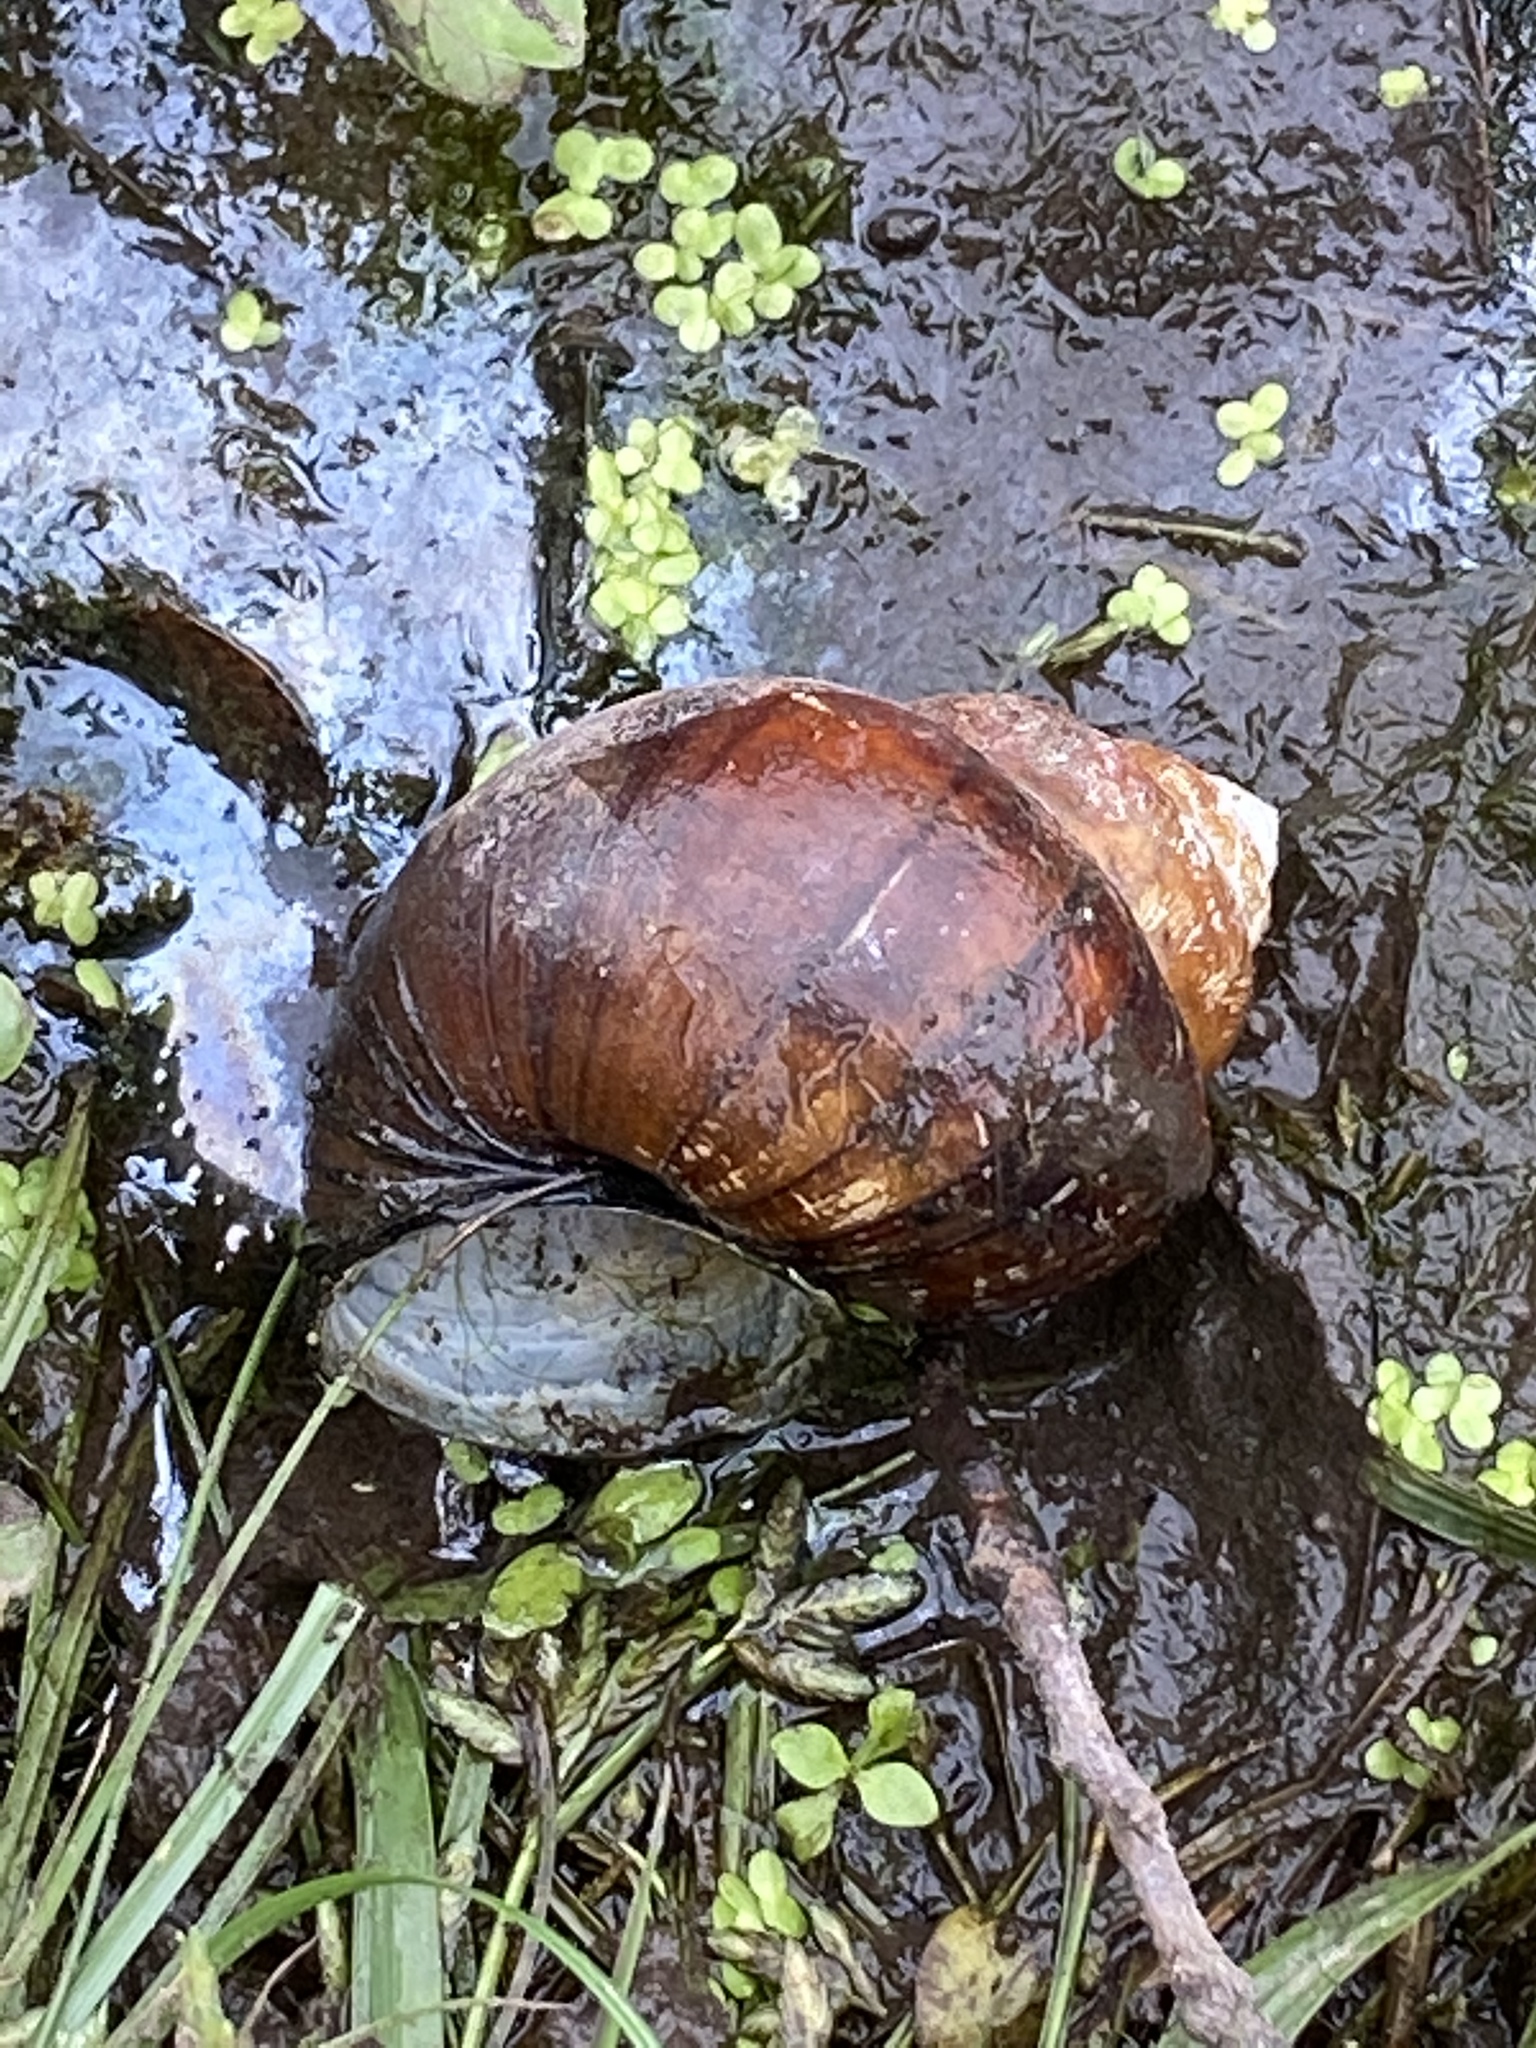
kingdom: Animalia
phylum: Mollusca
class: Gastropoda
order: Architaenioglossa
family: Viviparidae
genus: Cipangopaludina
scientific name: Cipangopaludina chinensis
